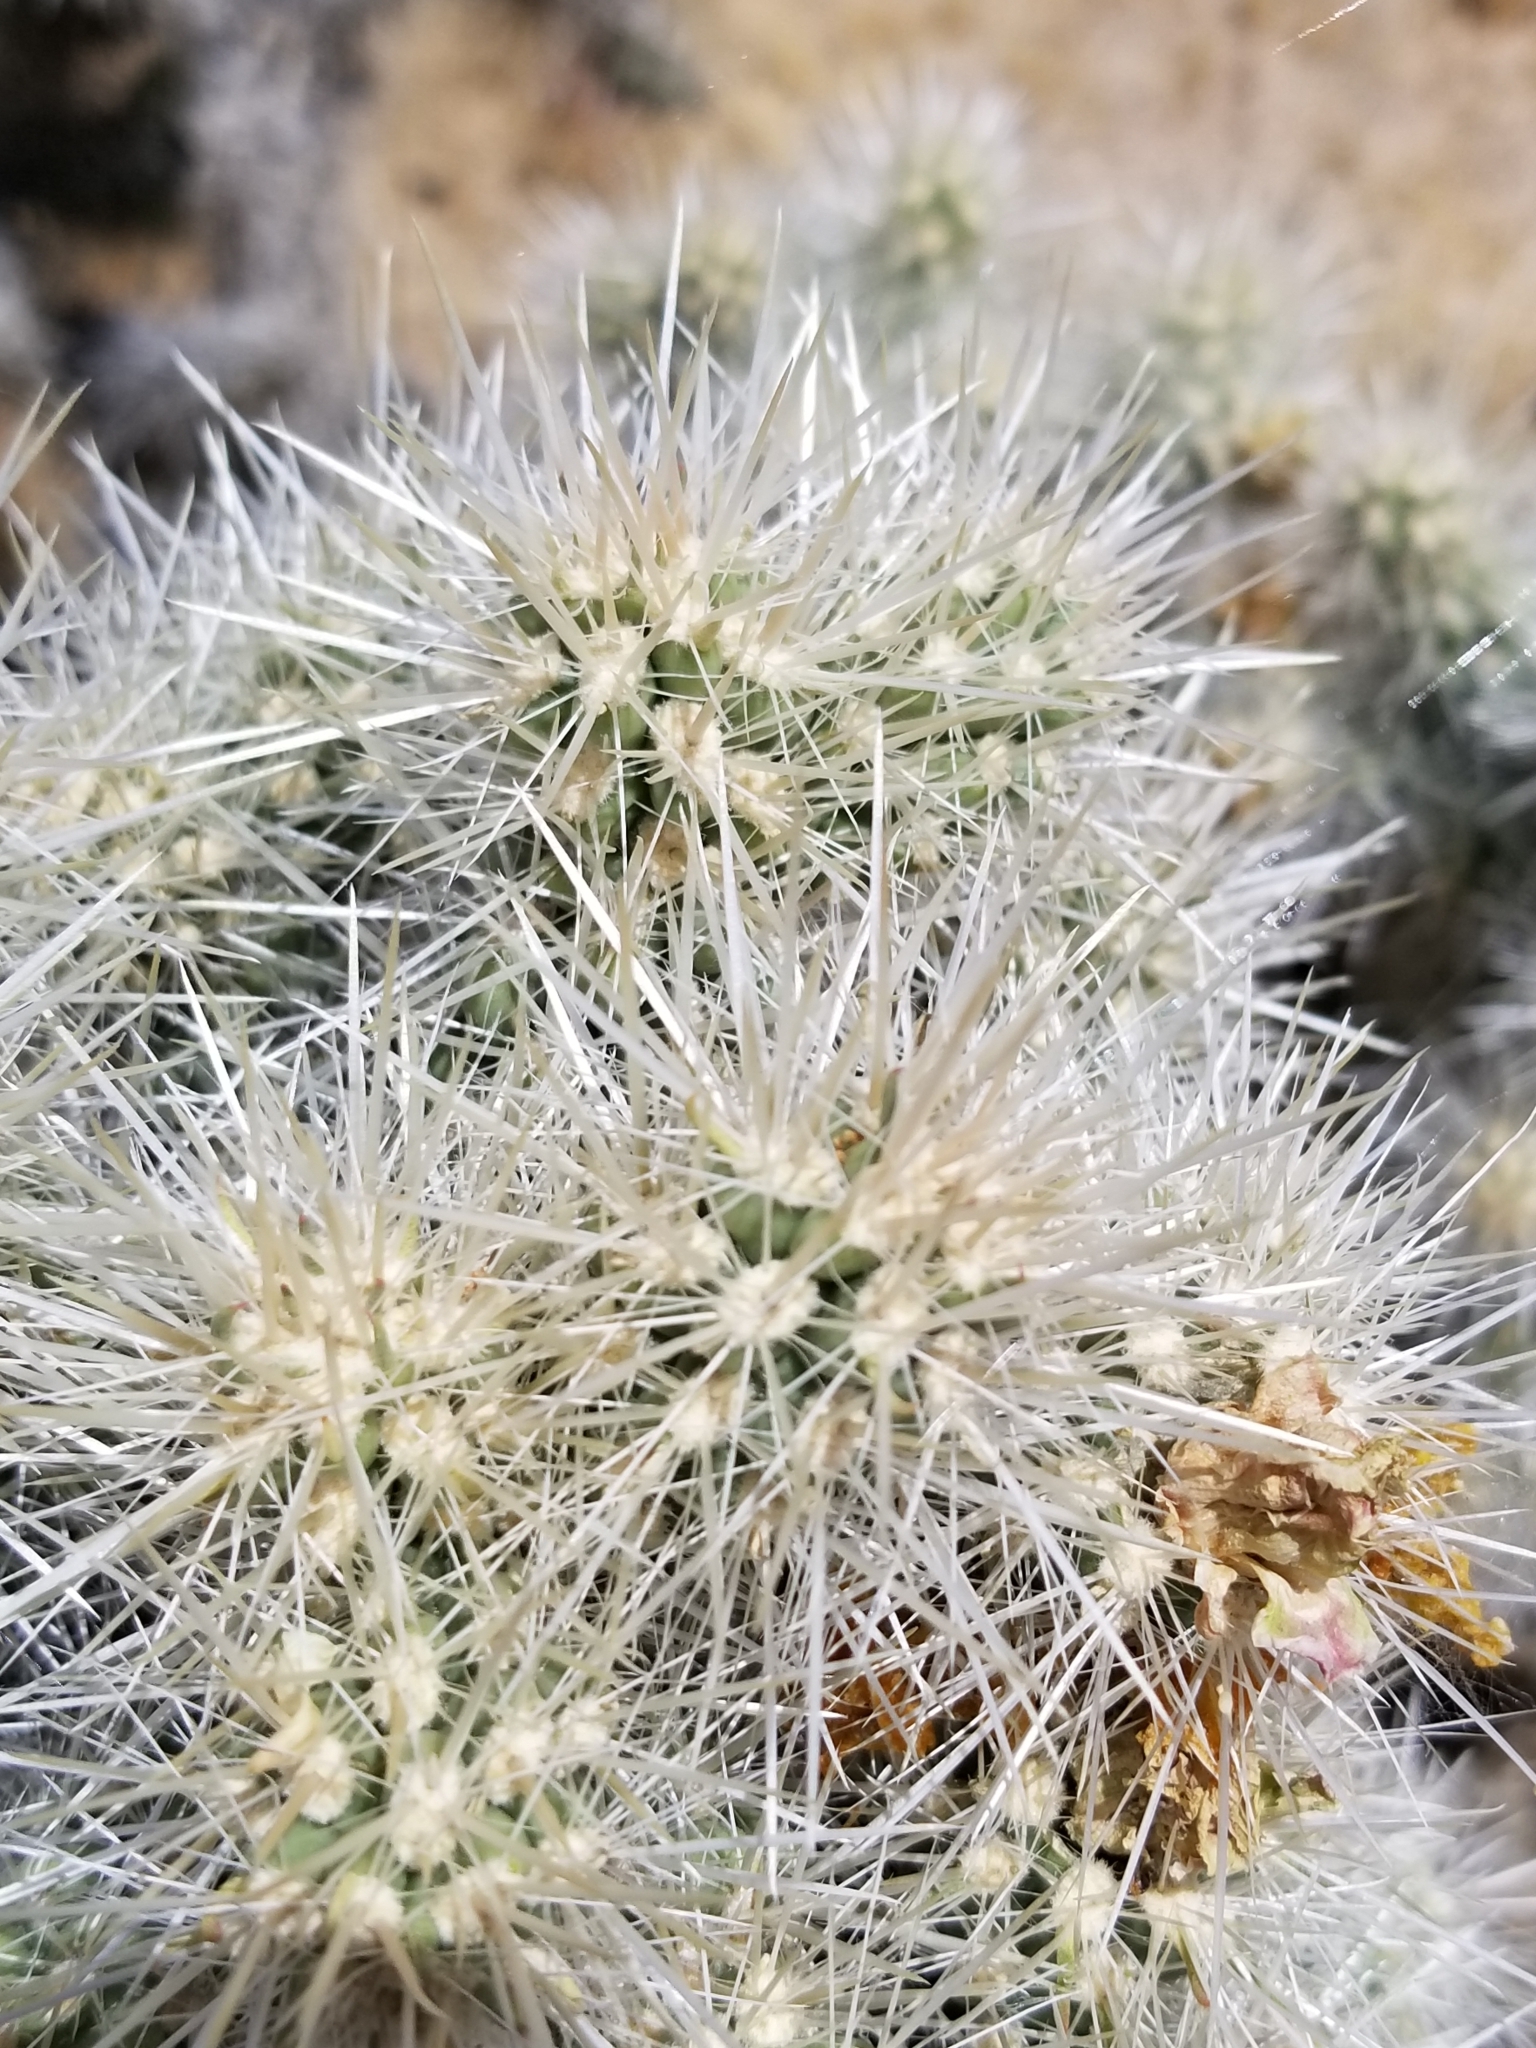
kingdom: Plantae
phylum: Tracheophyta
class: Magnoliopsida
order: Caryophyllales
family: Cactaceae
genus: Cylindropuntia
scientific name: Cylindropuntia echinocarpa
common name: Ground cholla
